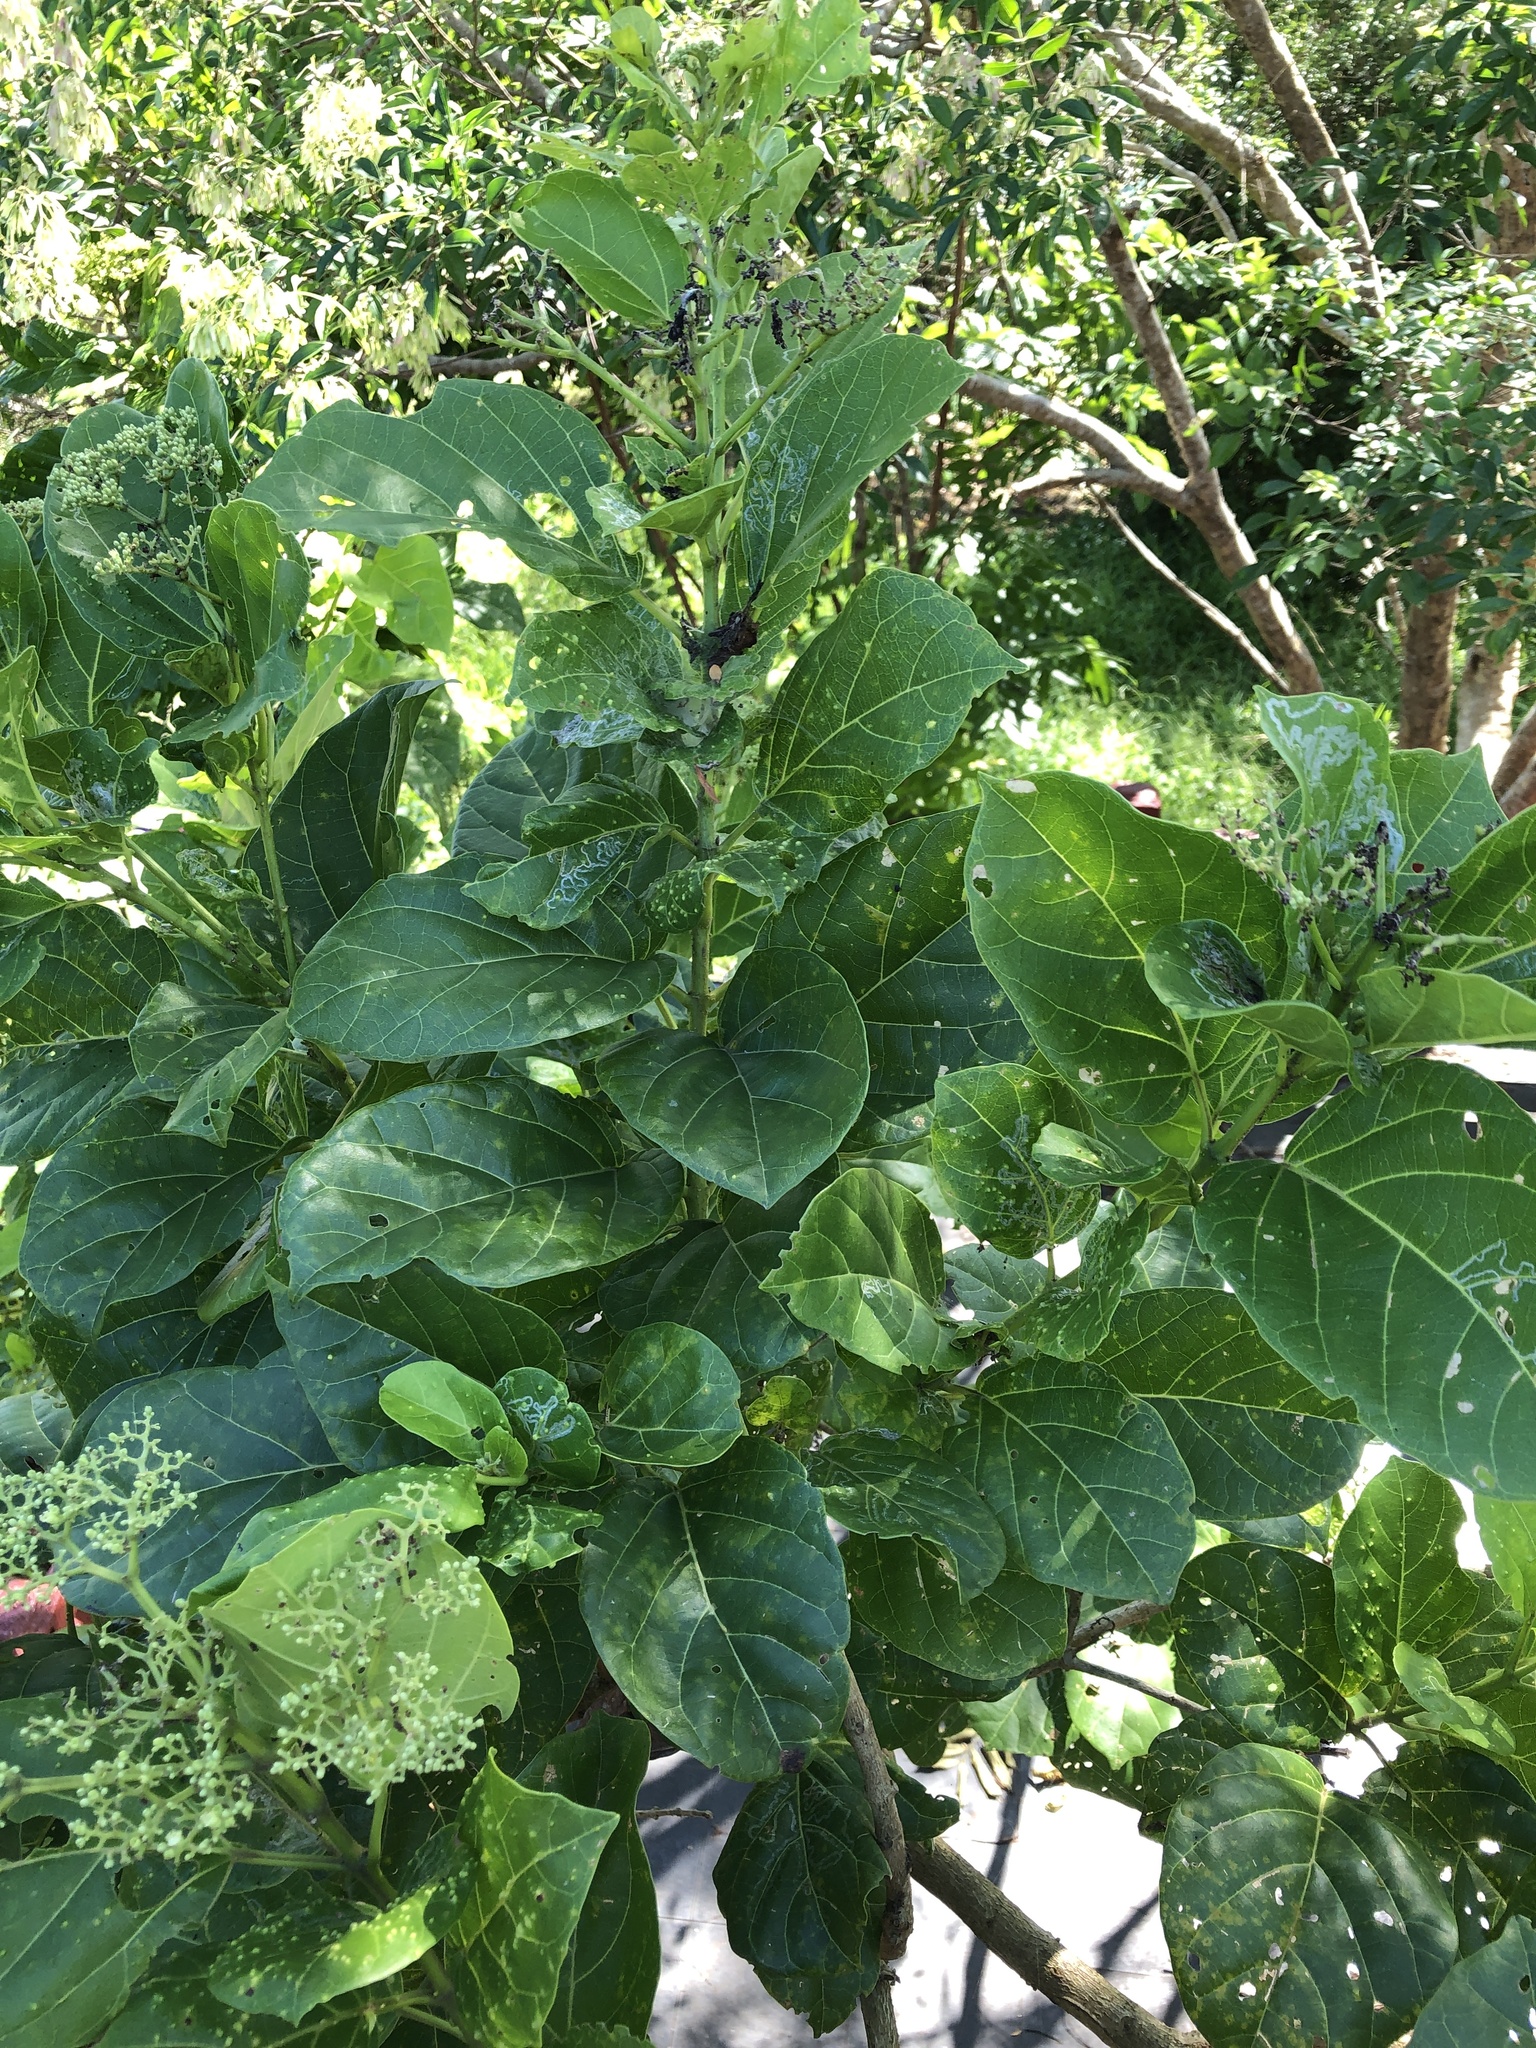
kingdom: Plantae
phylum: Tracheophyta
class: Magnoliopsida
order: Lamiales
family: Lamiaceae
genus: Premna
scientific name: Premna serratifolia
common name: Bastard guelder
